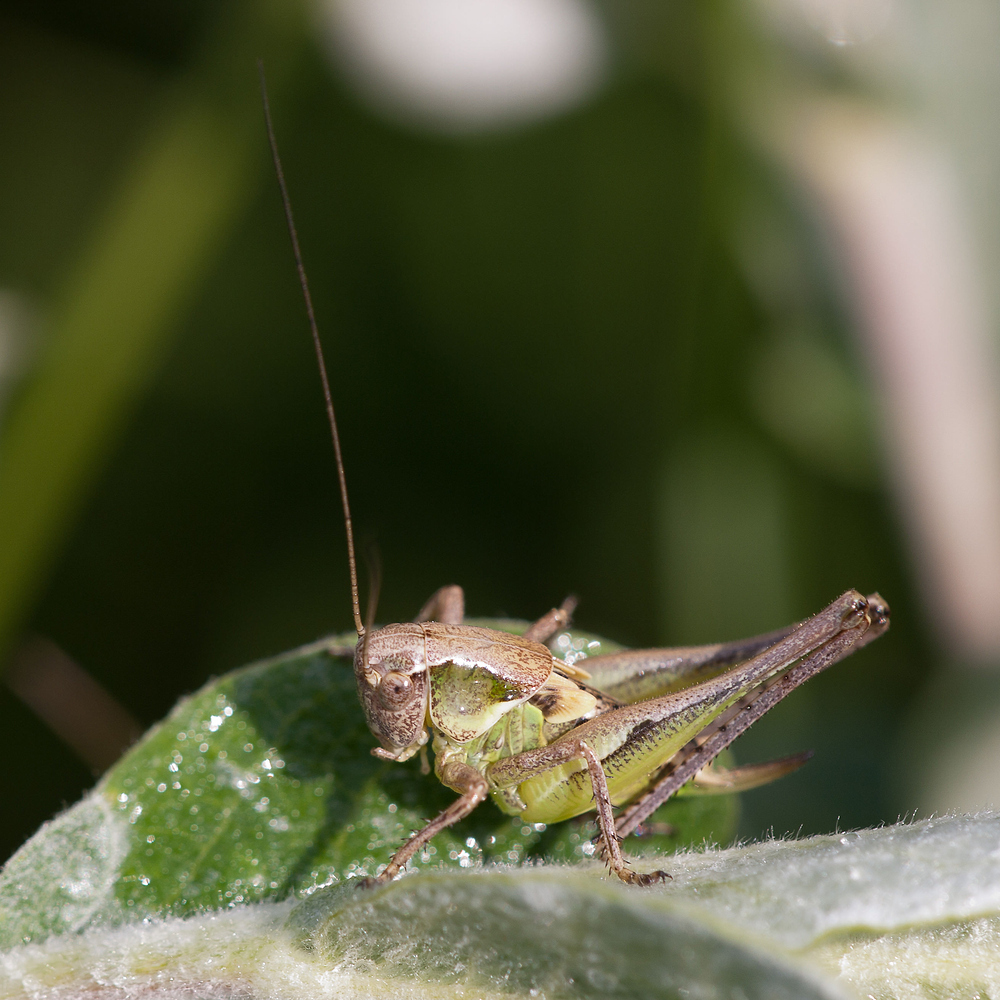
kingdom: Animalia
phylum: Arthropoda
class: Insecta
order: Orthoptera
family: Tettigoniidae
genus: Platycleis
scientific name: Platycleis albopunctata
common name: Grey bush-cricket
